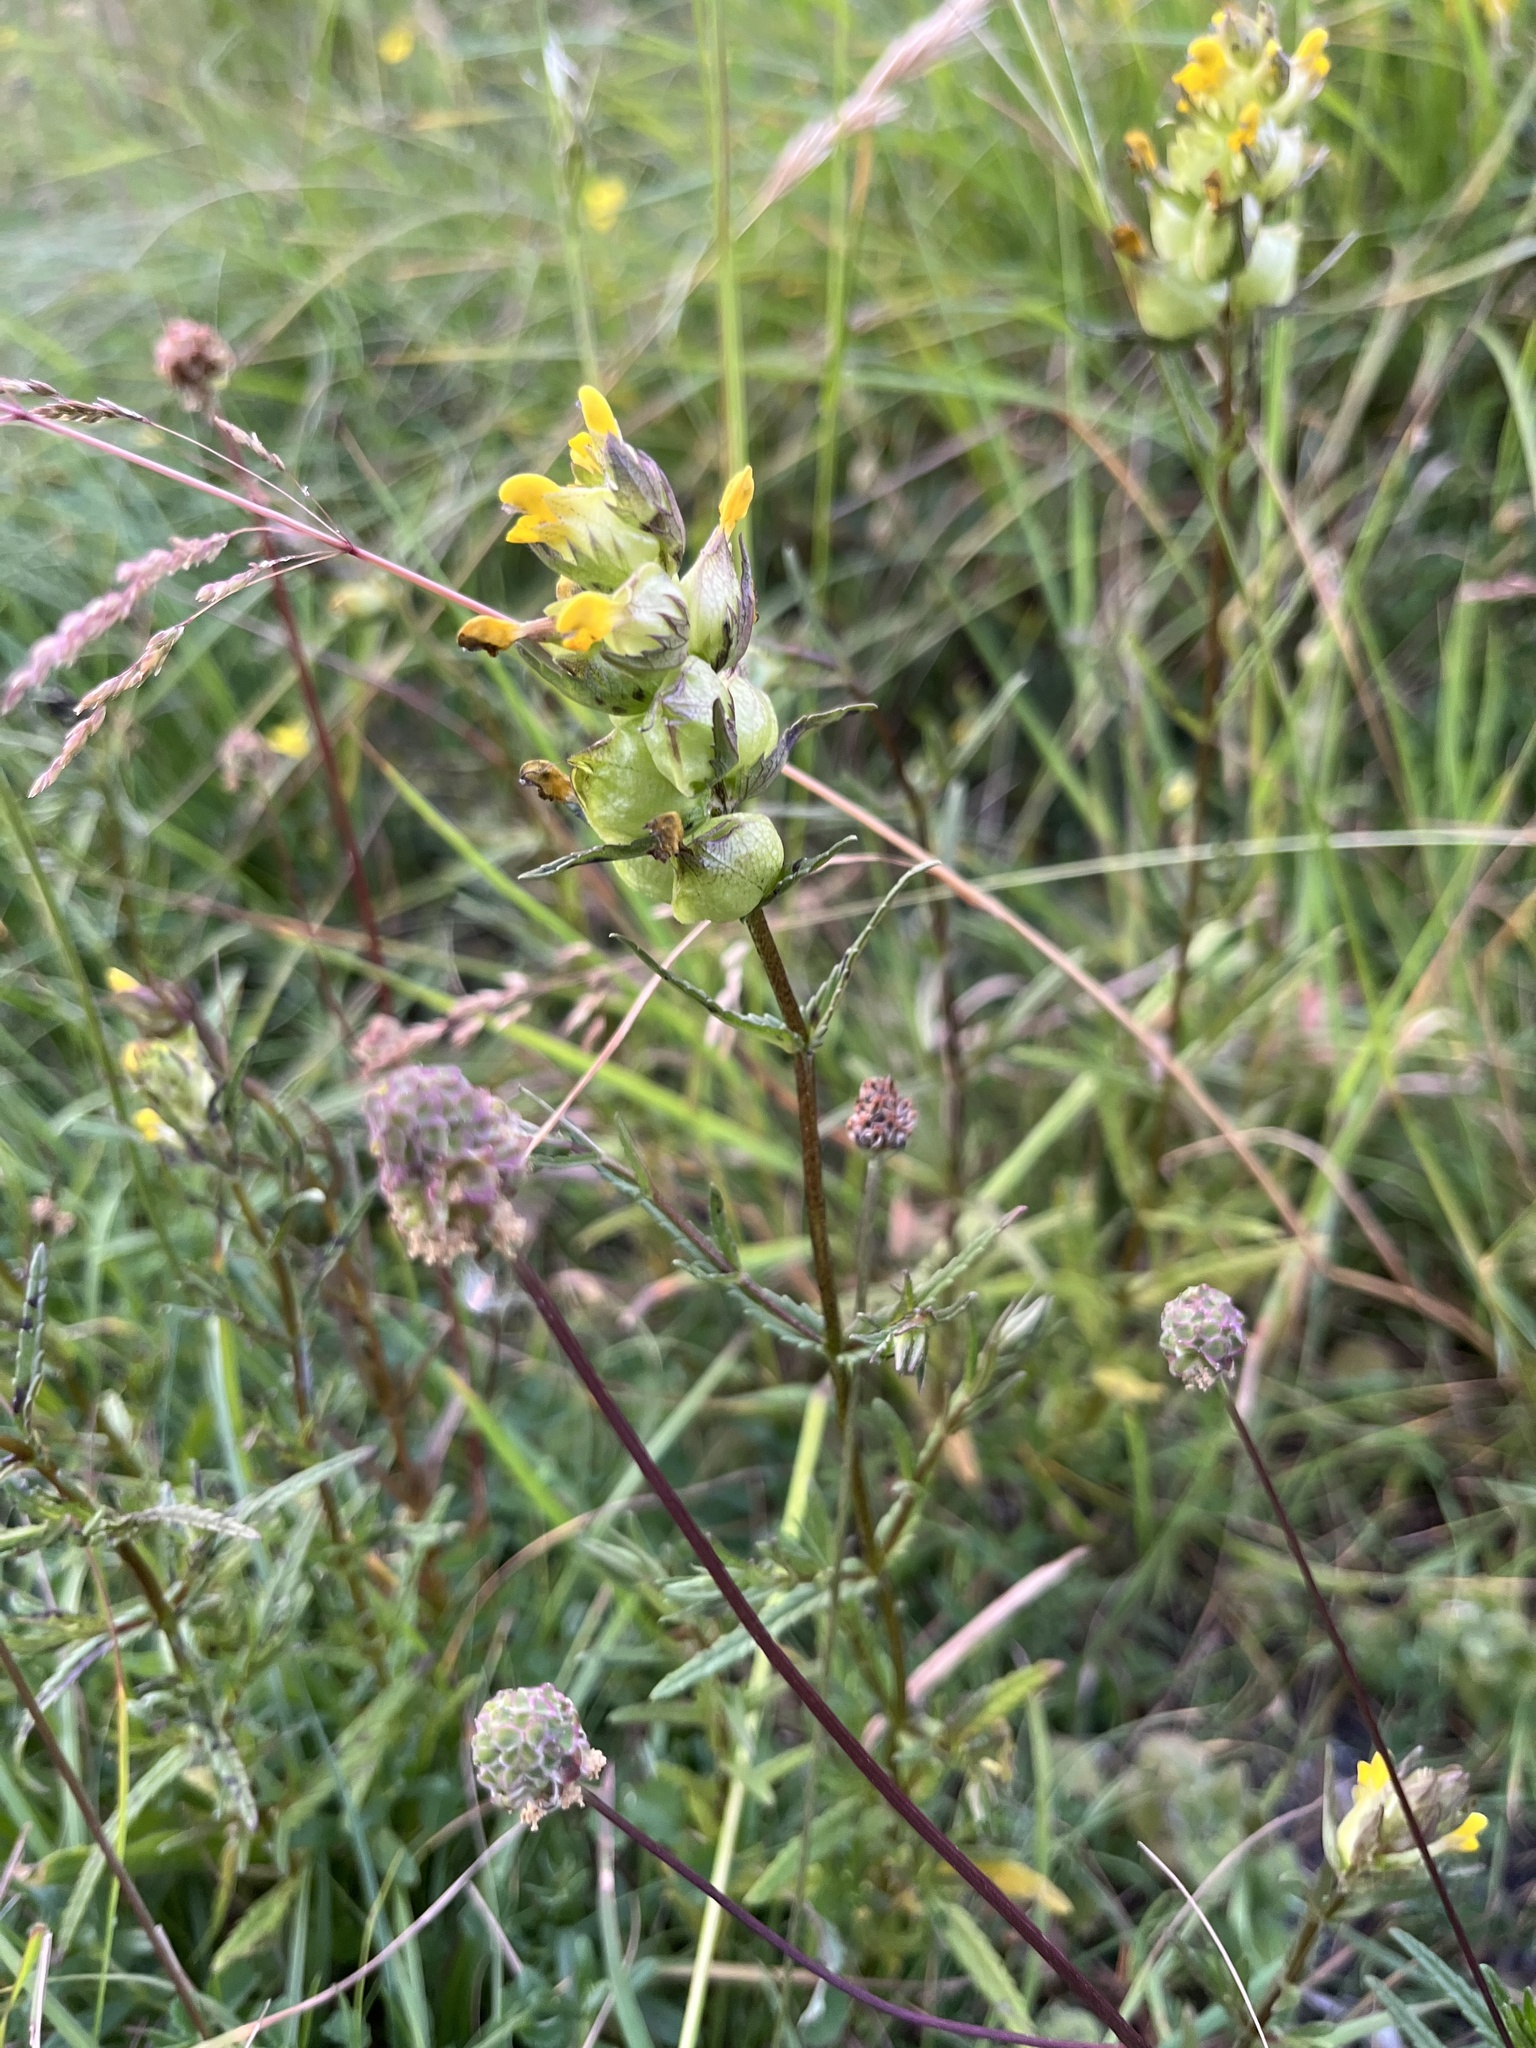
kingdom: Plantae
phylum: Tracheophyta
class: Magnoliopsida
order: Lamiales
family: Orobanchaceae
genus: Rhinanthus
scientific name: Rhinanthus minor
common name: Yellow-rattle
